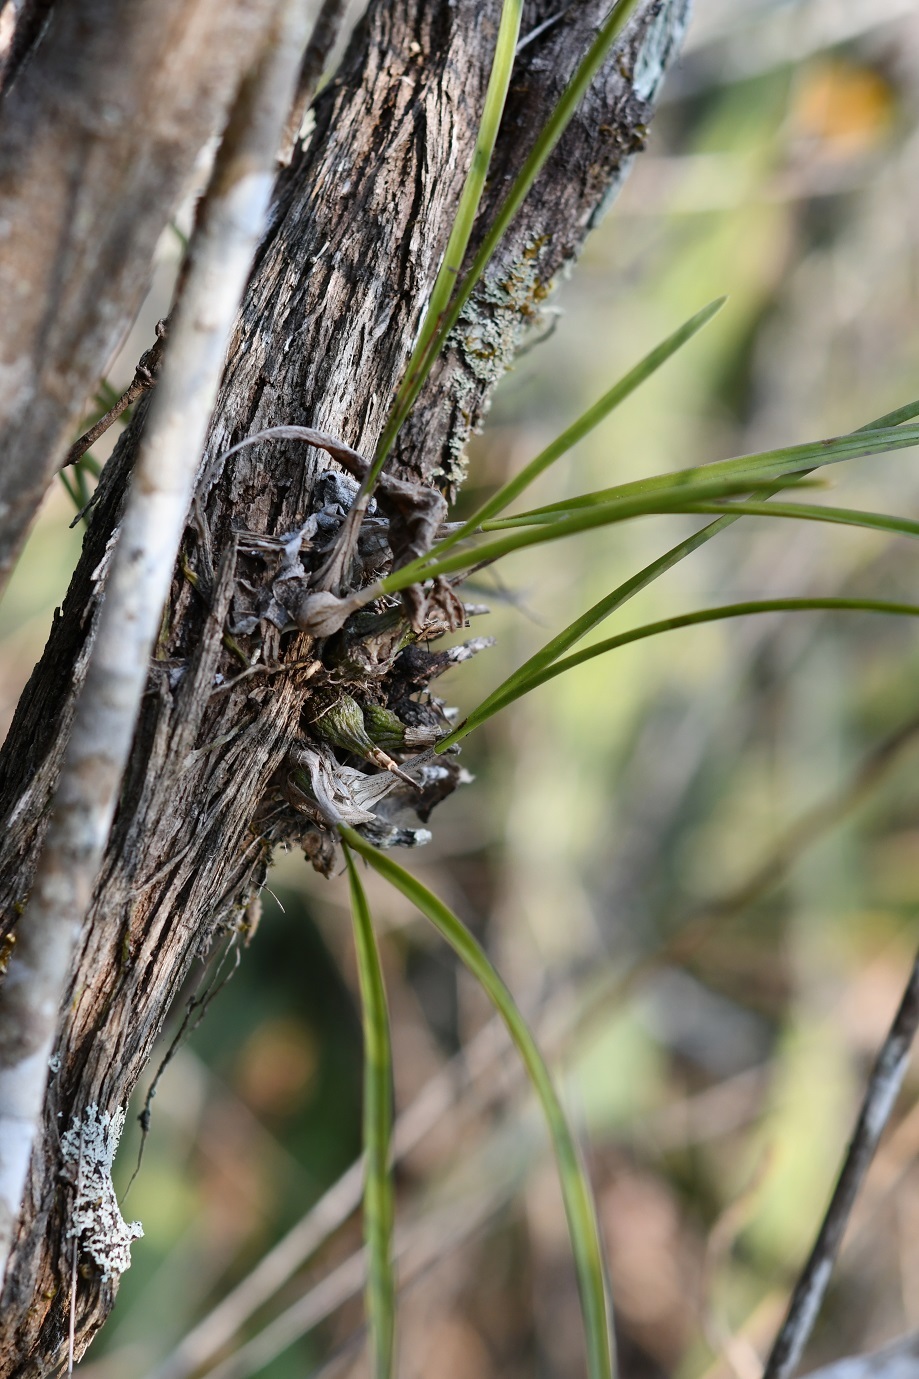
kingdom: Plantae
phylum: Tracheophyta
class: Liliopsida
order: Asparagales
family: Orchidaceae
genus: Encyclia
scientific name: Encyclia bractescens
